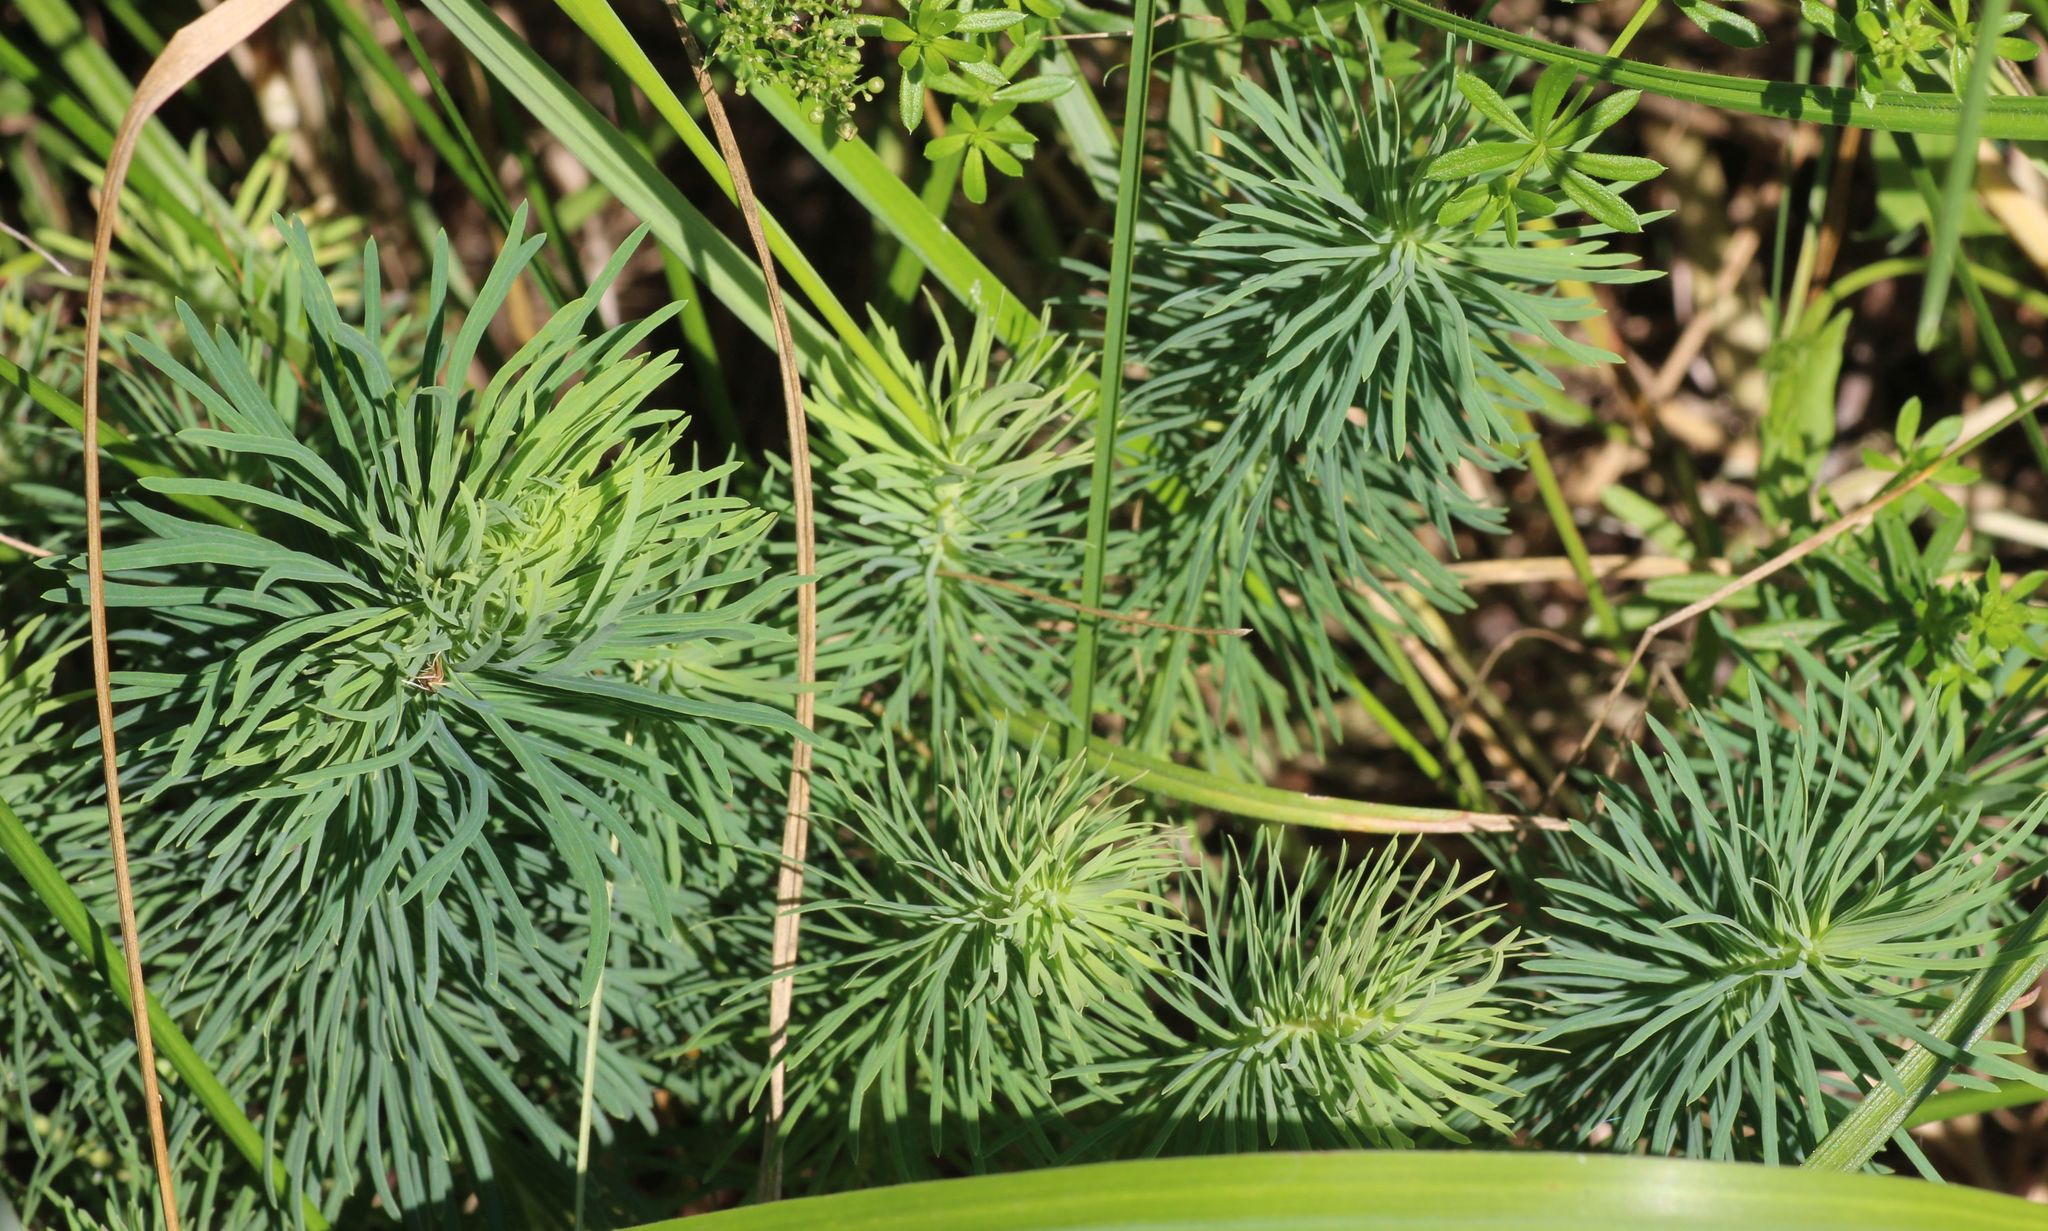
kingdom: Plantae
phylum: Tracheophyta
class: Magnoliopsida
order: Malpighiales
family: Euphorbiaceae
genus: Euphorbia
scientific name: Euphorbia cyparissias
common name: Cypress spurge
